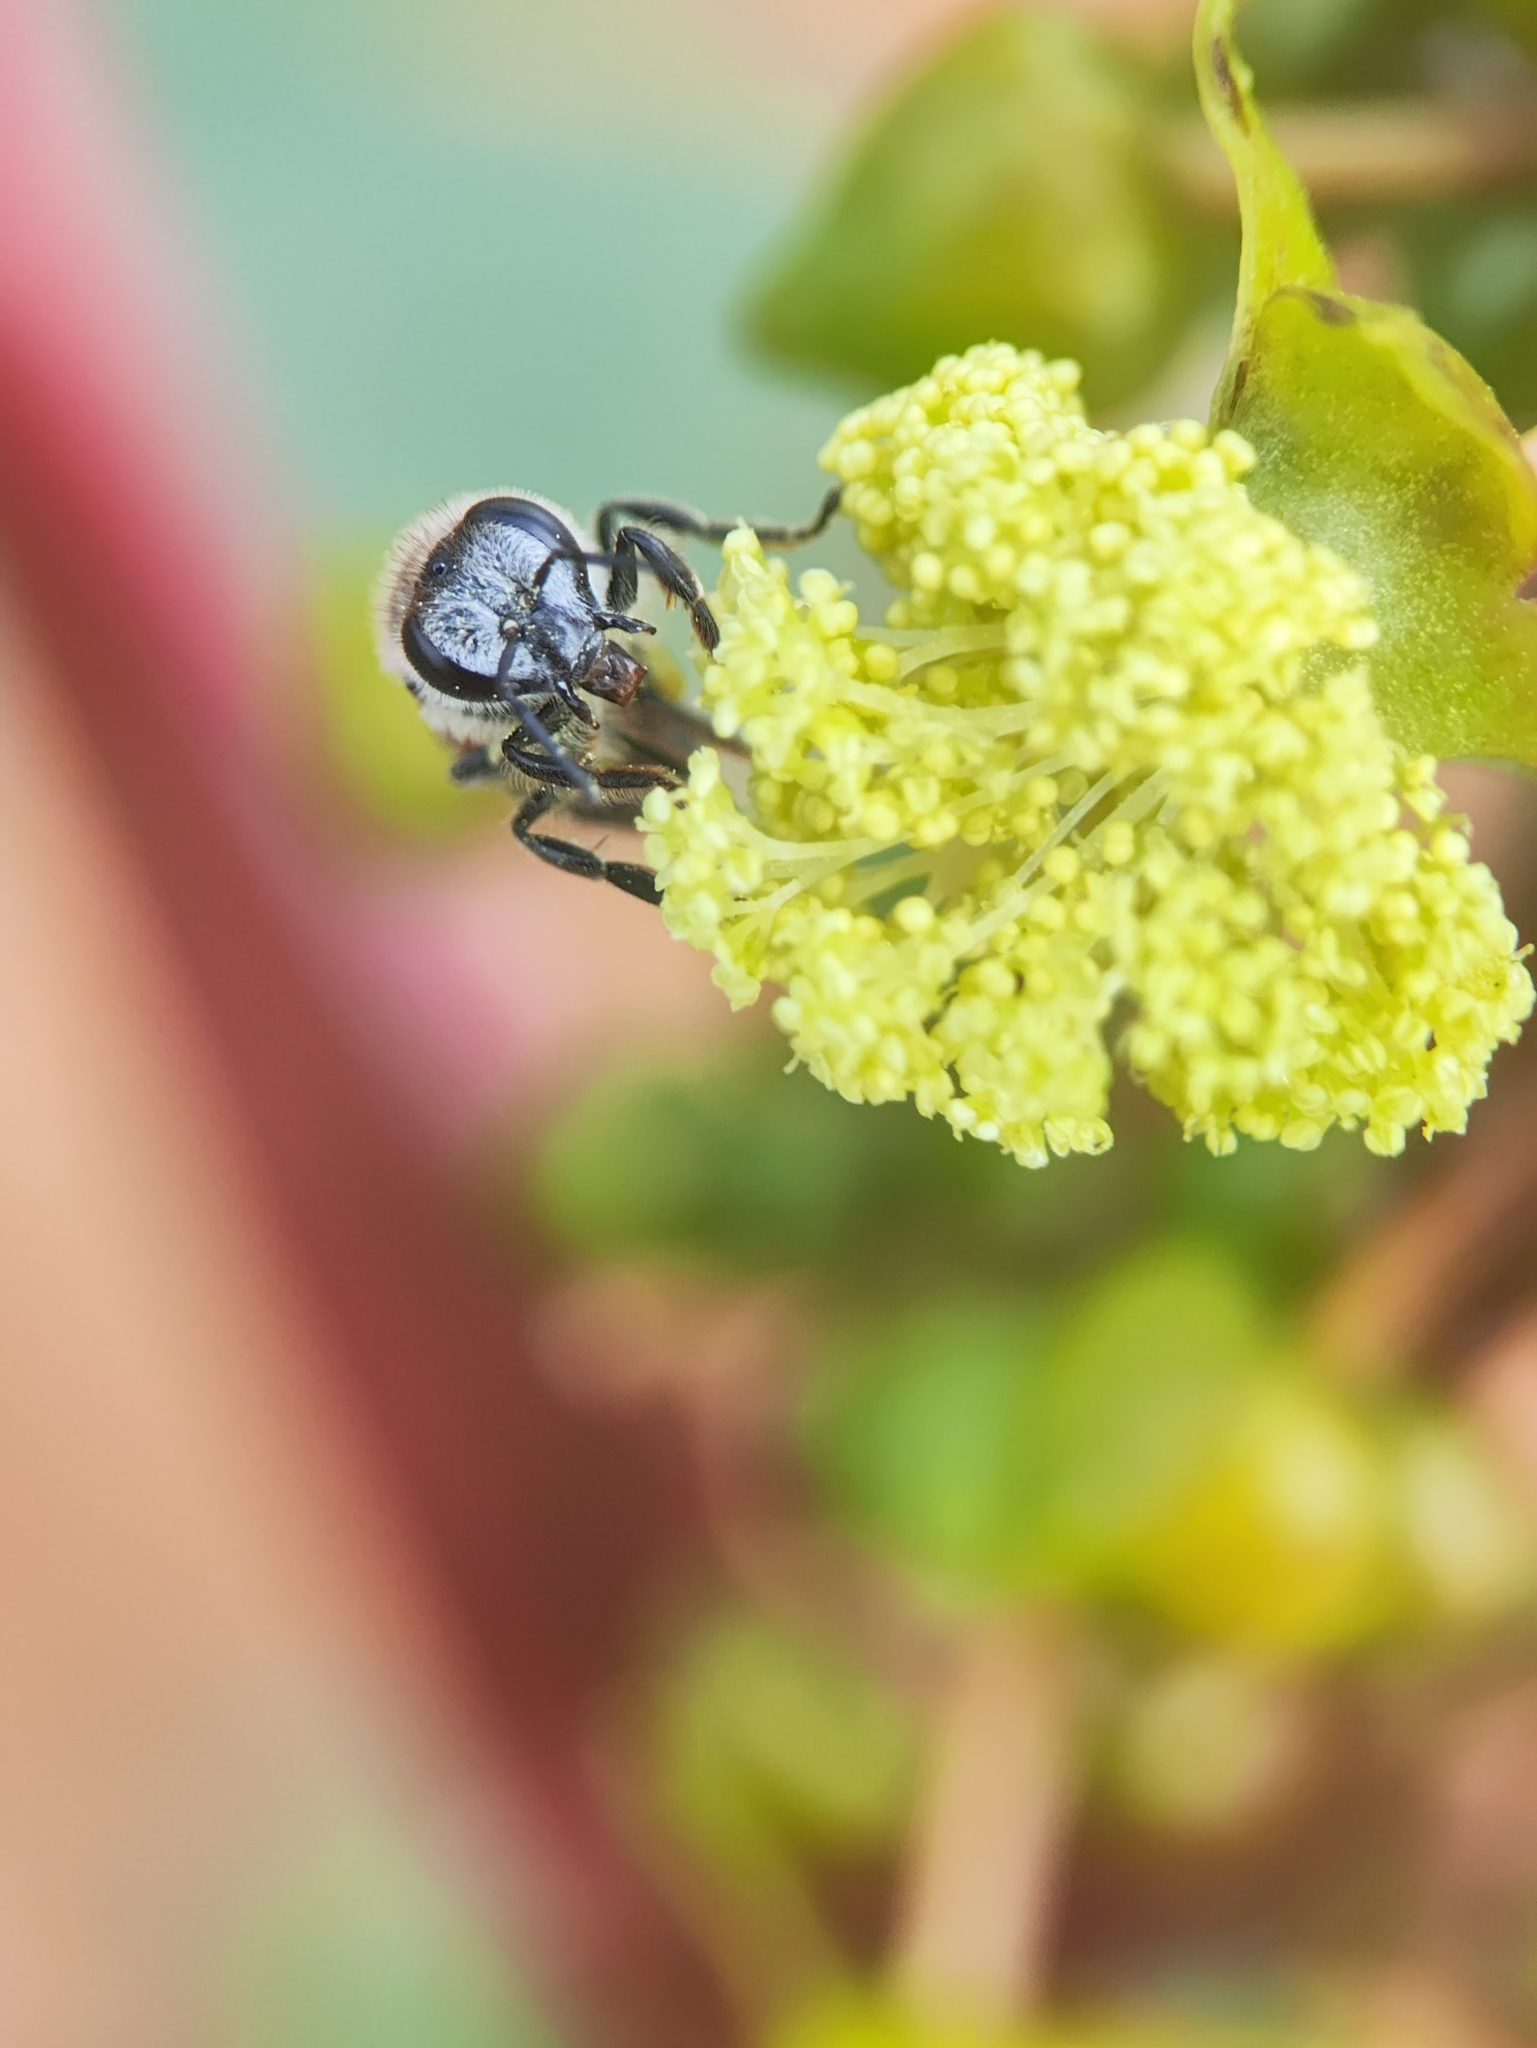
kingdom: Animalia
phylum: Arthropoda
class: Insecta
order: Hymenoptera
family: Apidae
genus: Apis
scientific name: Apis florea
